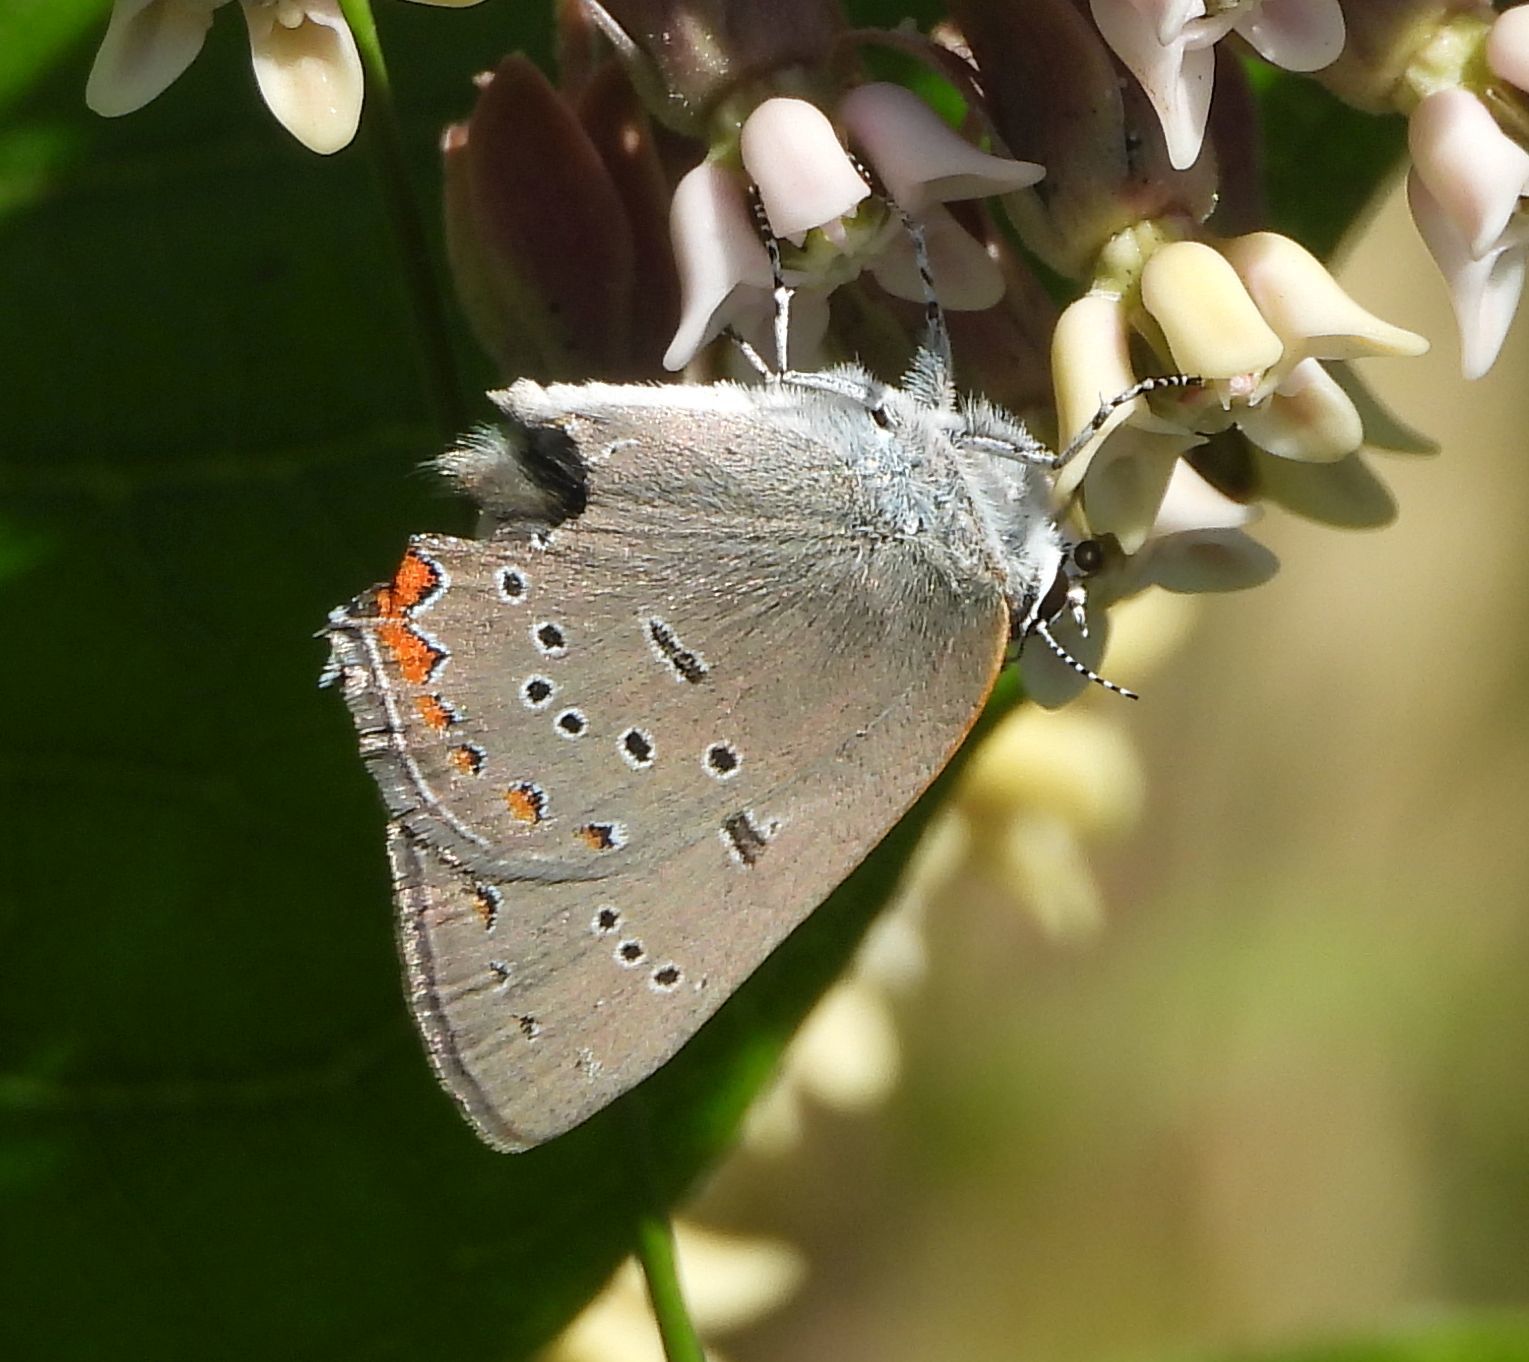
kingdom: Animalia
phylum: Arthropoda
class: Insecta
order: Lepidoptera
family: Lycaenidae
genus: Strymon
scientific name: Strymon acadica
